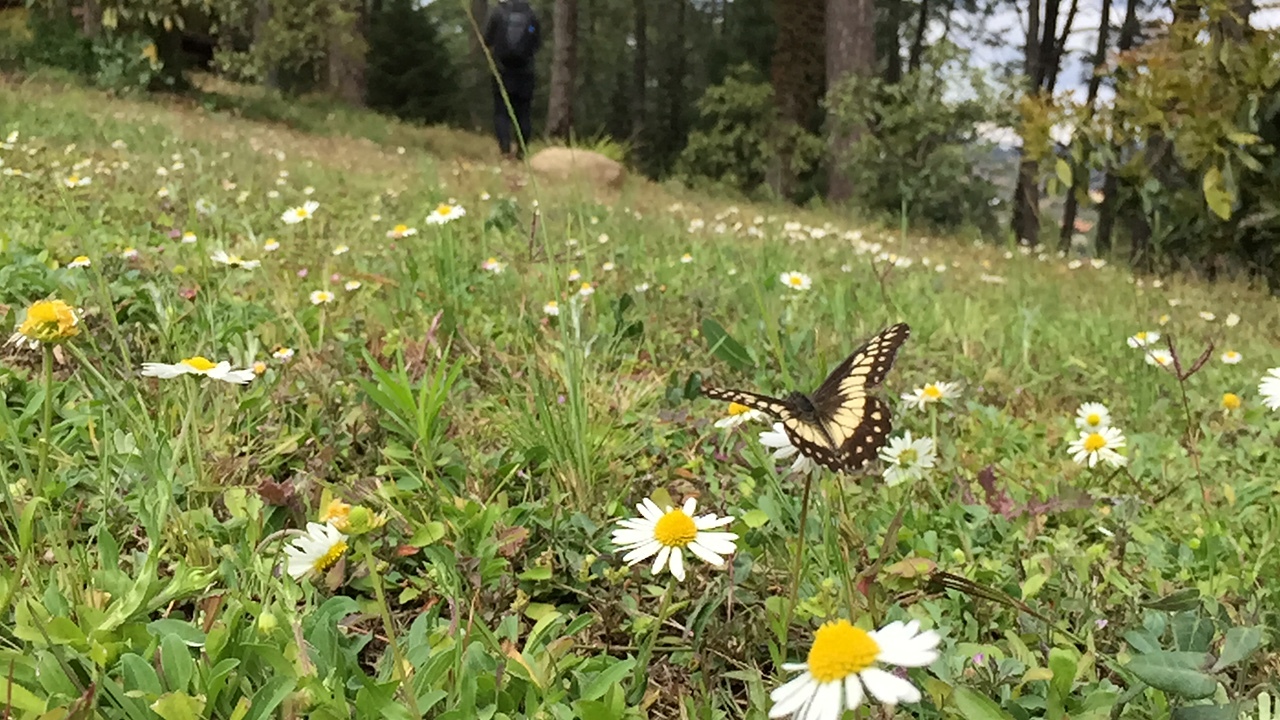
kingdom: Animalia
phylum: Arthropoda
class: Insecta
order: Lepidoptera
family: Pieridae
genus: Archonias
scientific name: Archonias nimbice
